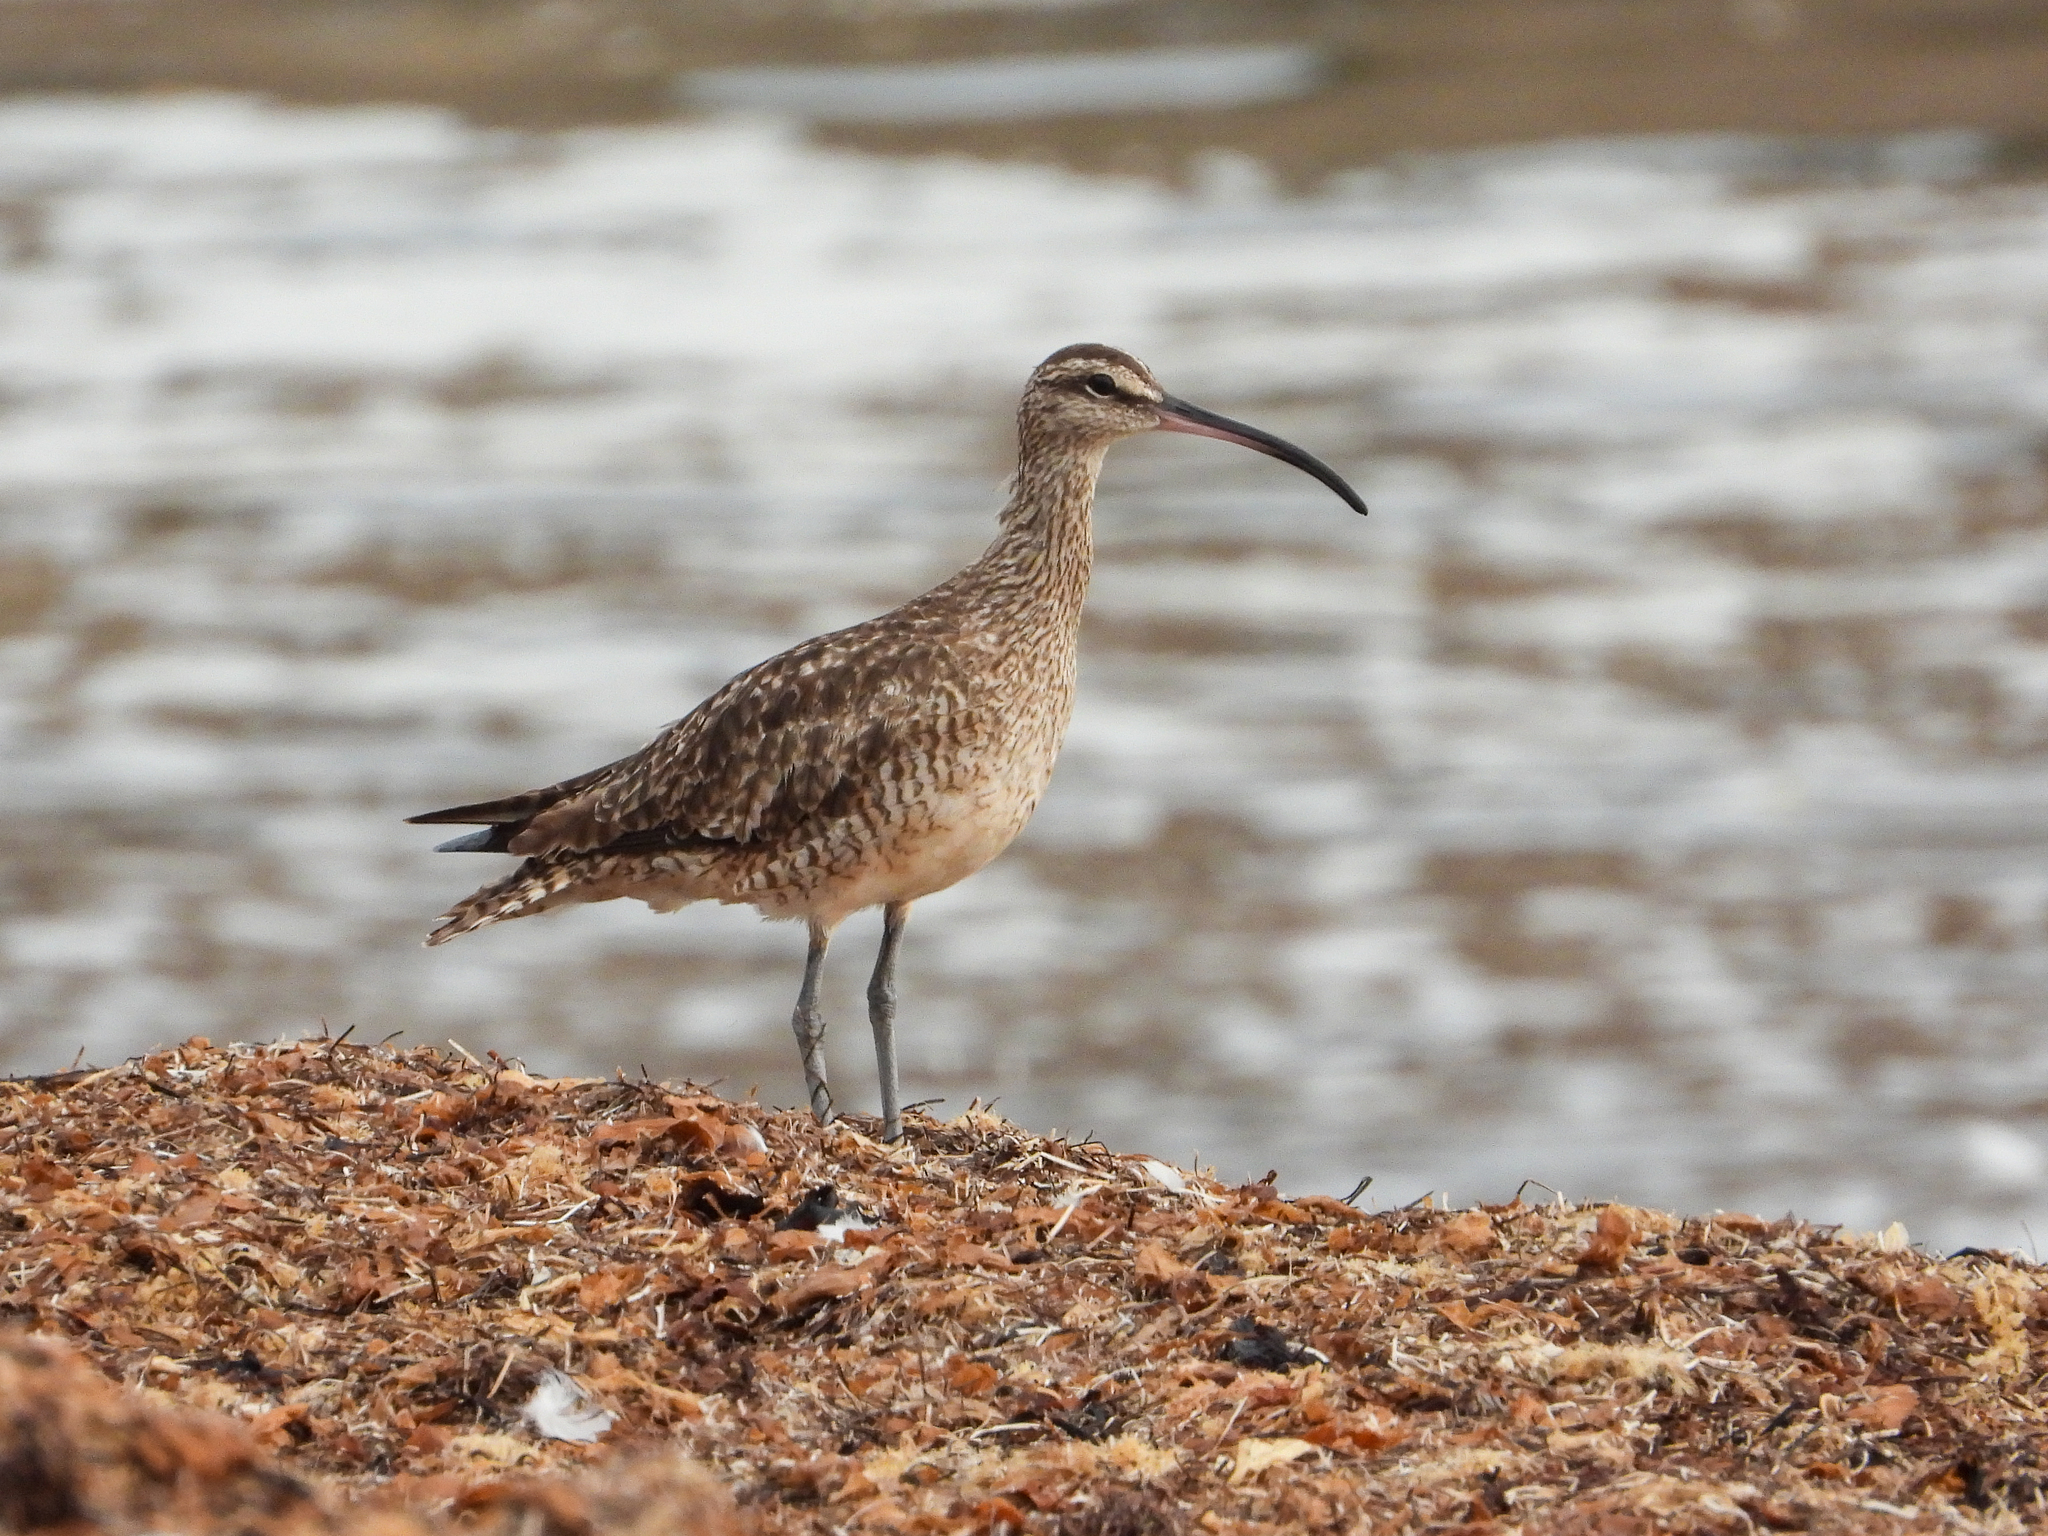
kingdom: Animalia
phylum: Chordata
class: Aves
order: Charadriiformes
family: Scolopacidae
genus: Numenius
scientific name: Numenius phaeopus
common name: Whimbrel
